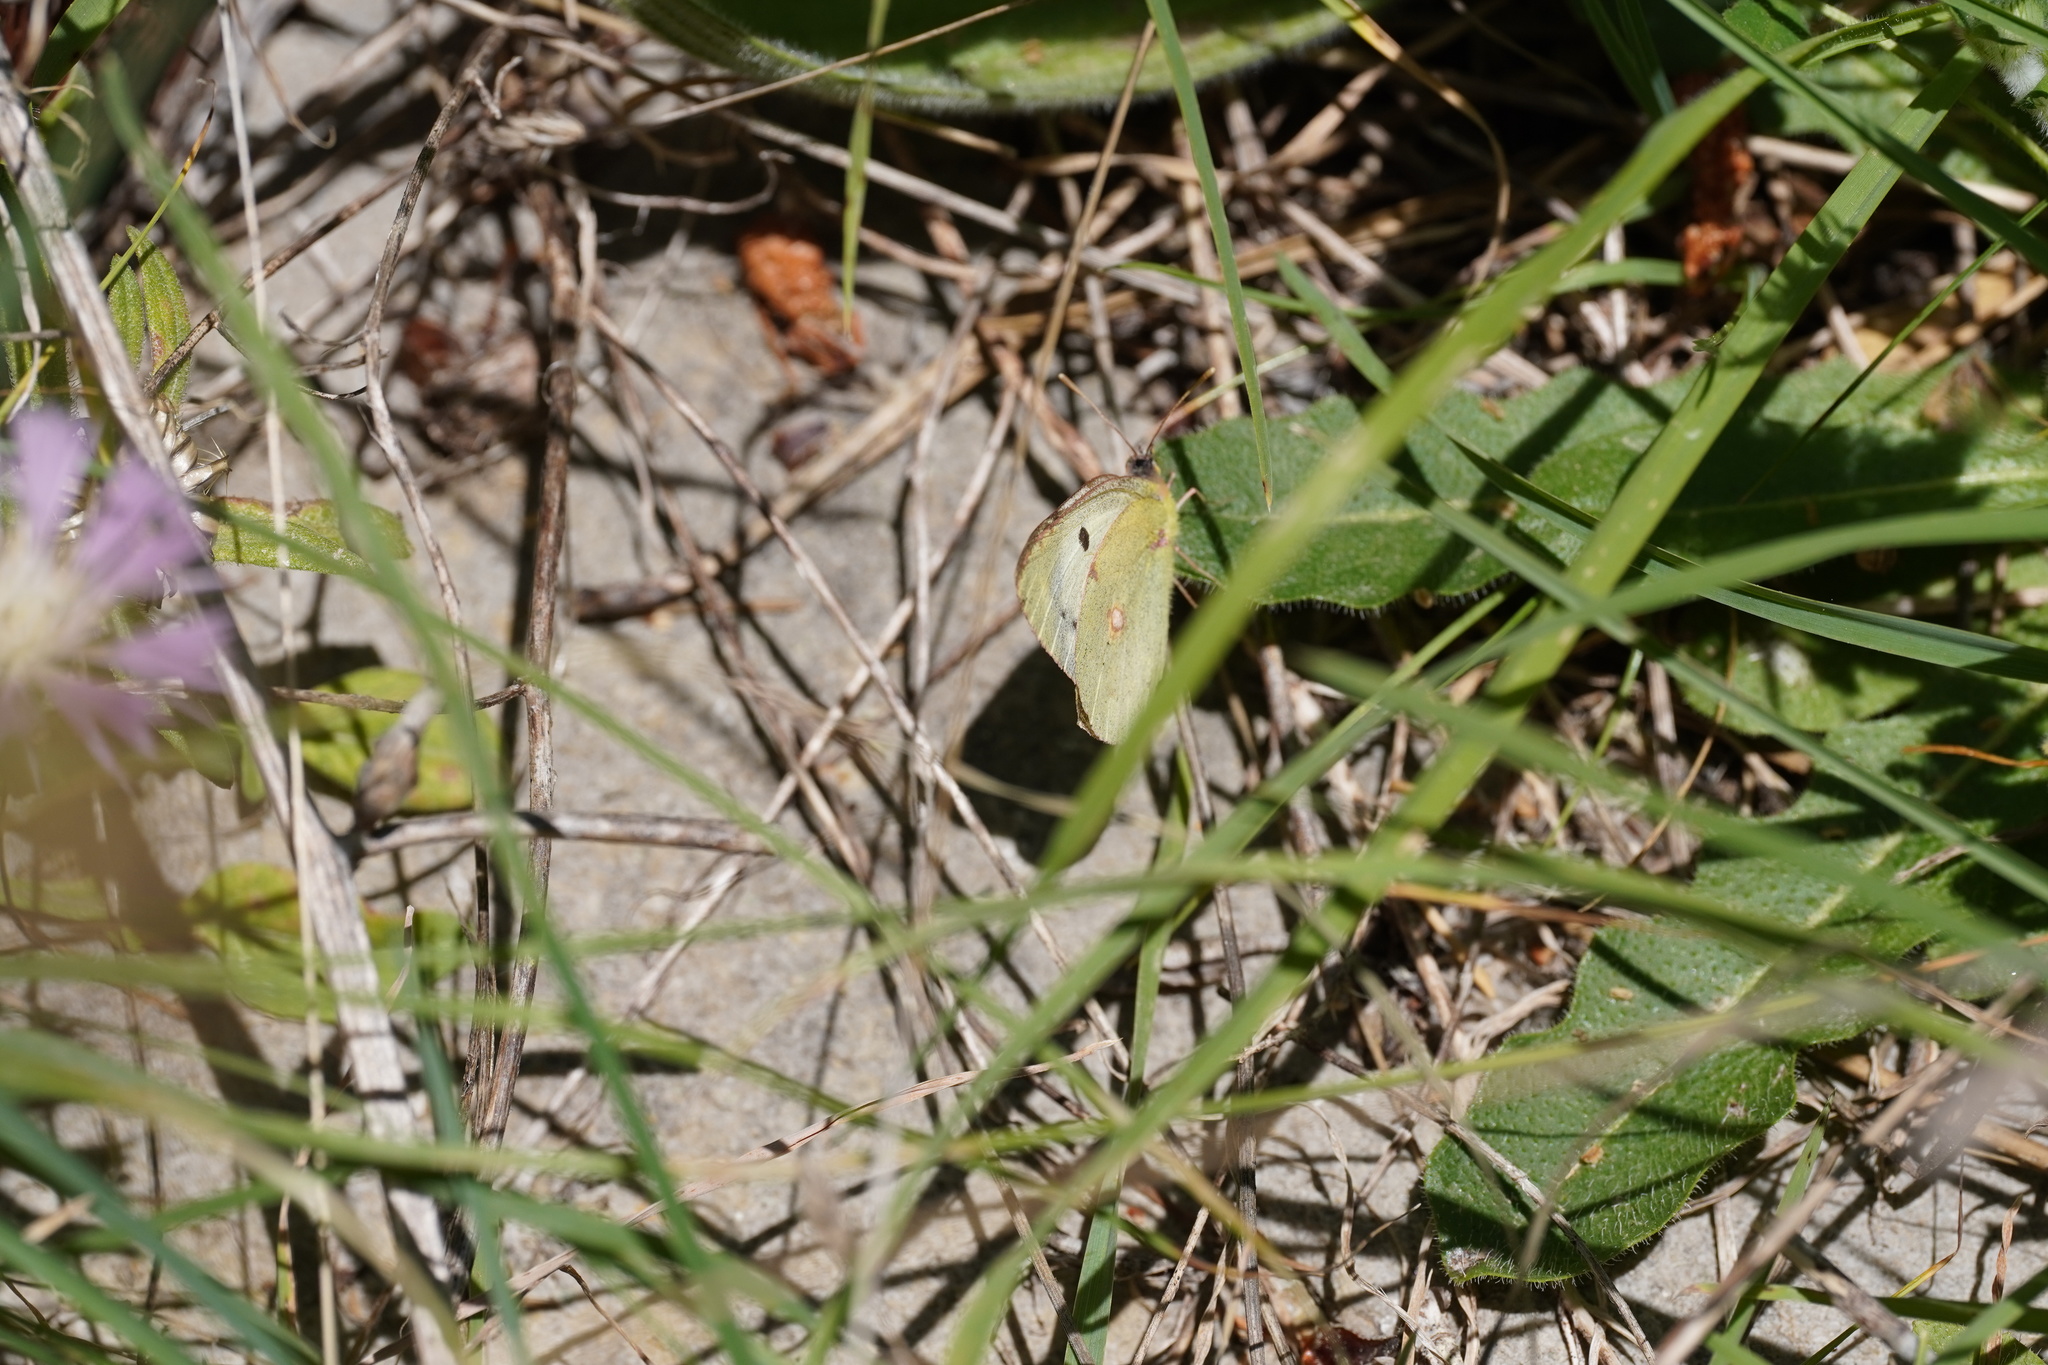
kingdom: Animalia
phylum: Arthropoda
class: Insecta
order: Lepidoptera
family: Pieridae
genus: Colias
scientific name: Colias alfacariensis
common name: Berger's clouded yellow
